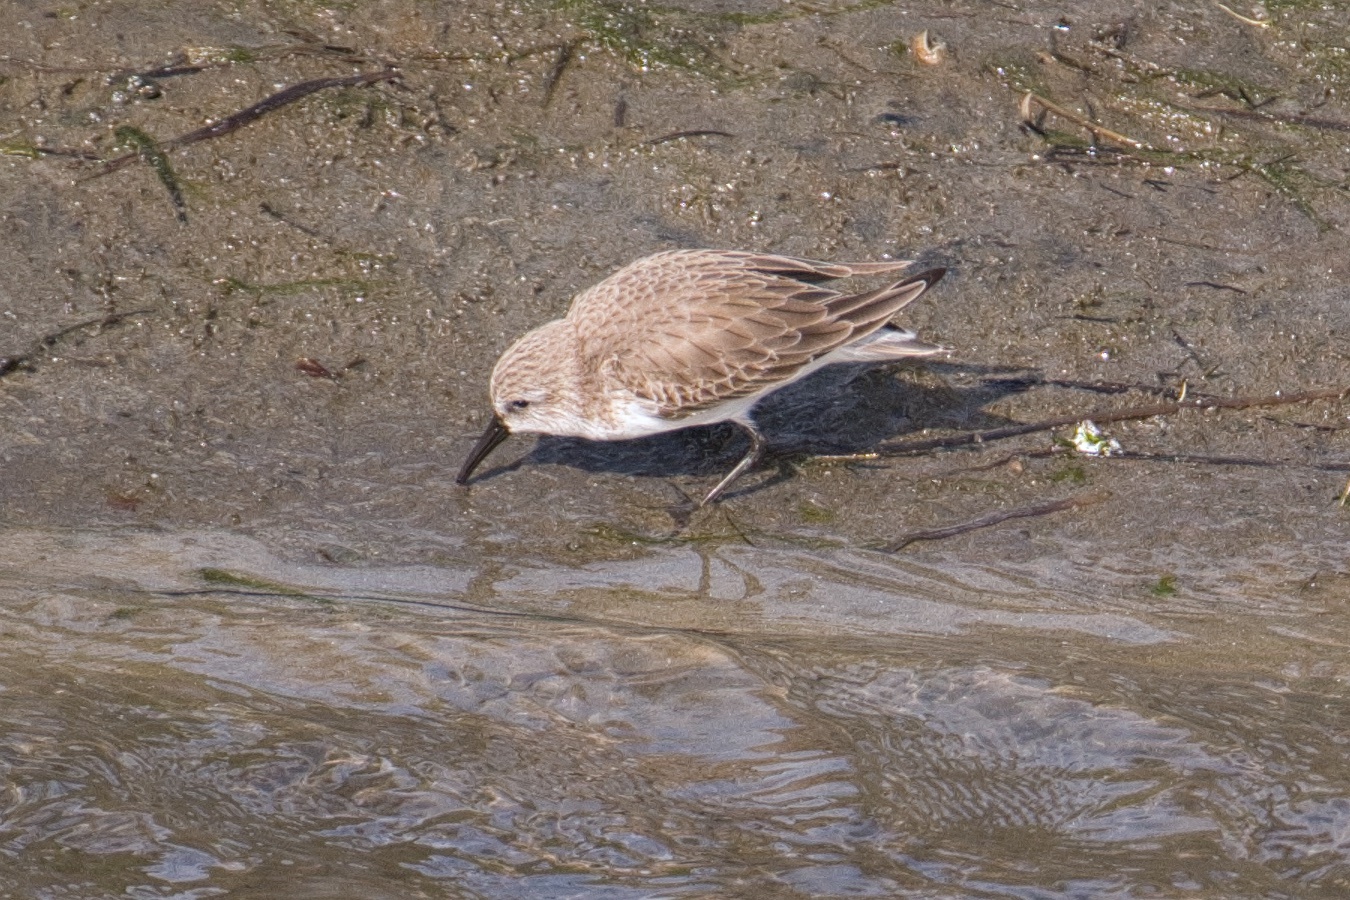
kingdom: Animalia
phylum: Chordata
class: Aves
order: Charadriiformes
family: Scolopacidae
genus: Calidris
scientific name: Calidris mauri
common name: Western sandpiper
